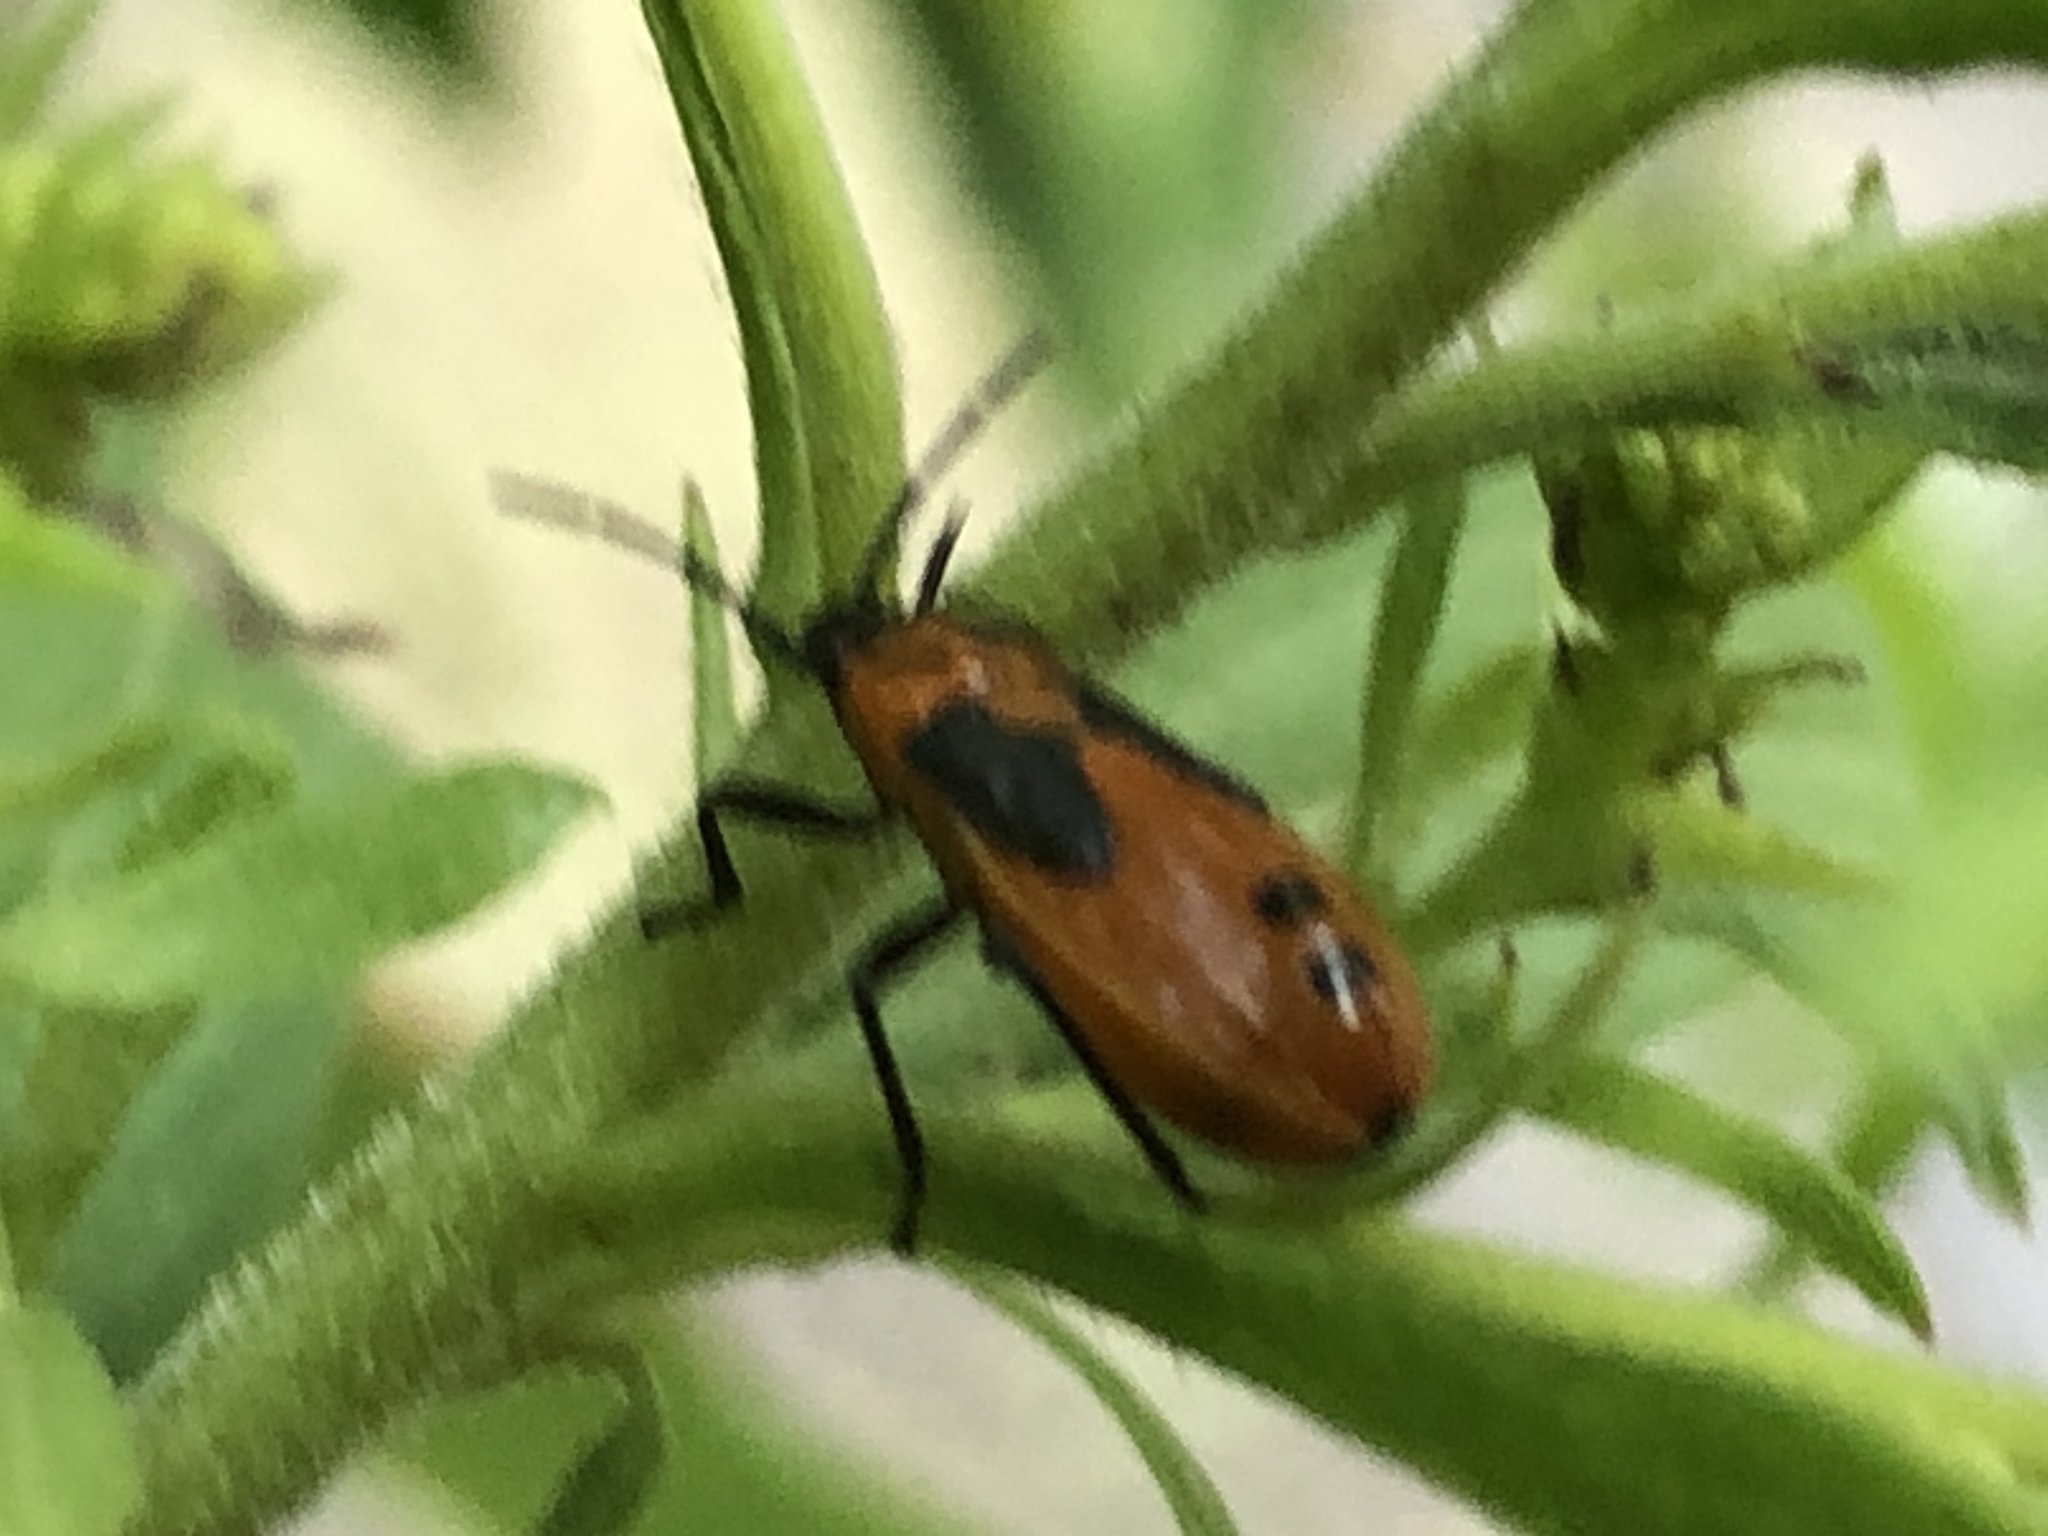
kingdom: Animalia
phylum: Arthropoda
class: Insecta
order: Hemiptera
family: Lygaeidae
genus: Lygaeus
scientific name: Lygaeus turcicus
